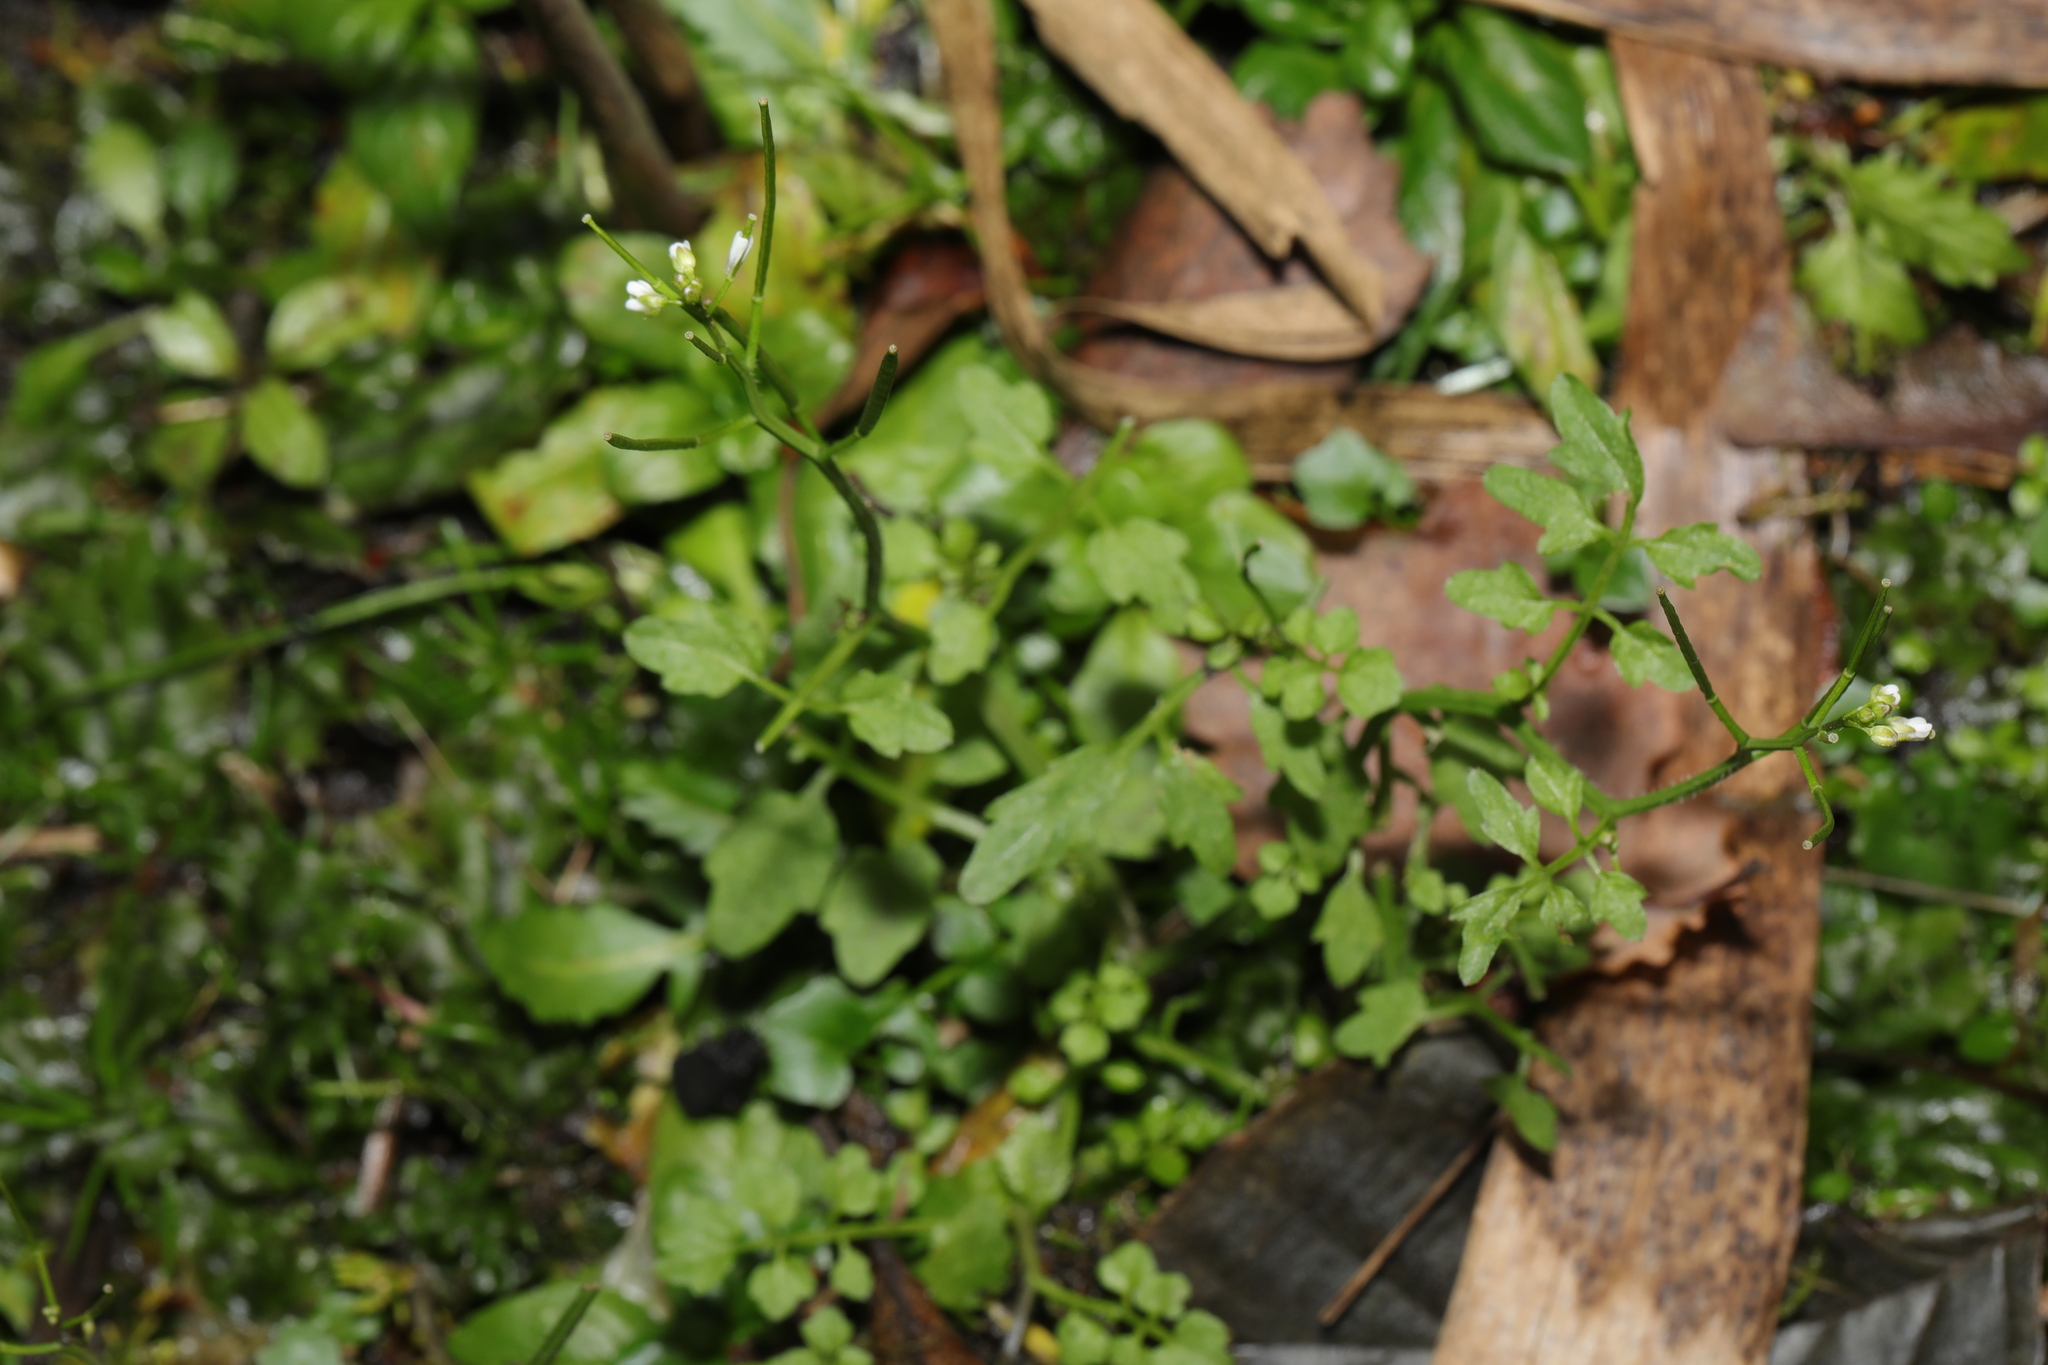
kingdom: Plantae
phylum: Tracheophyta
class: Magnoliopsida
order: Brassicales
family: Brassicaceae
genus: Cardamine
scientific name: Cardamine flexuosa
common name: Woodland bittercress
